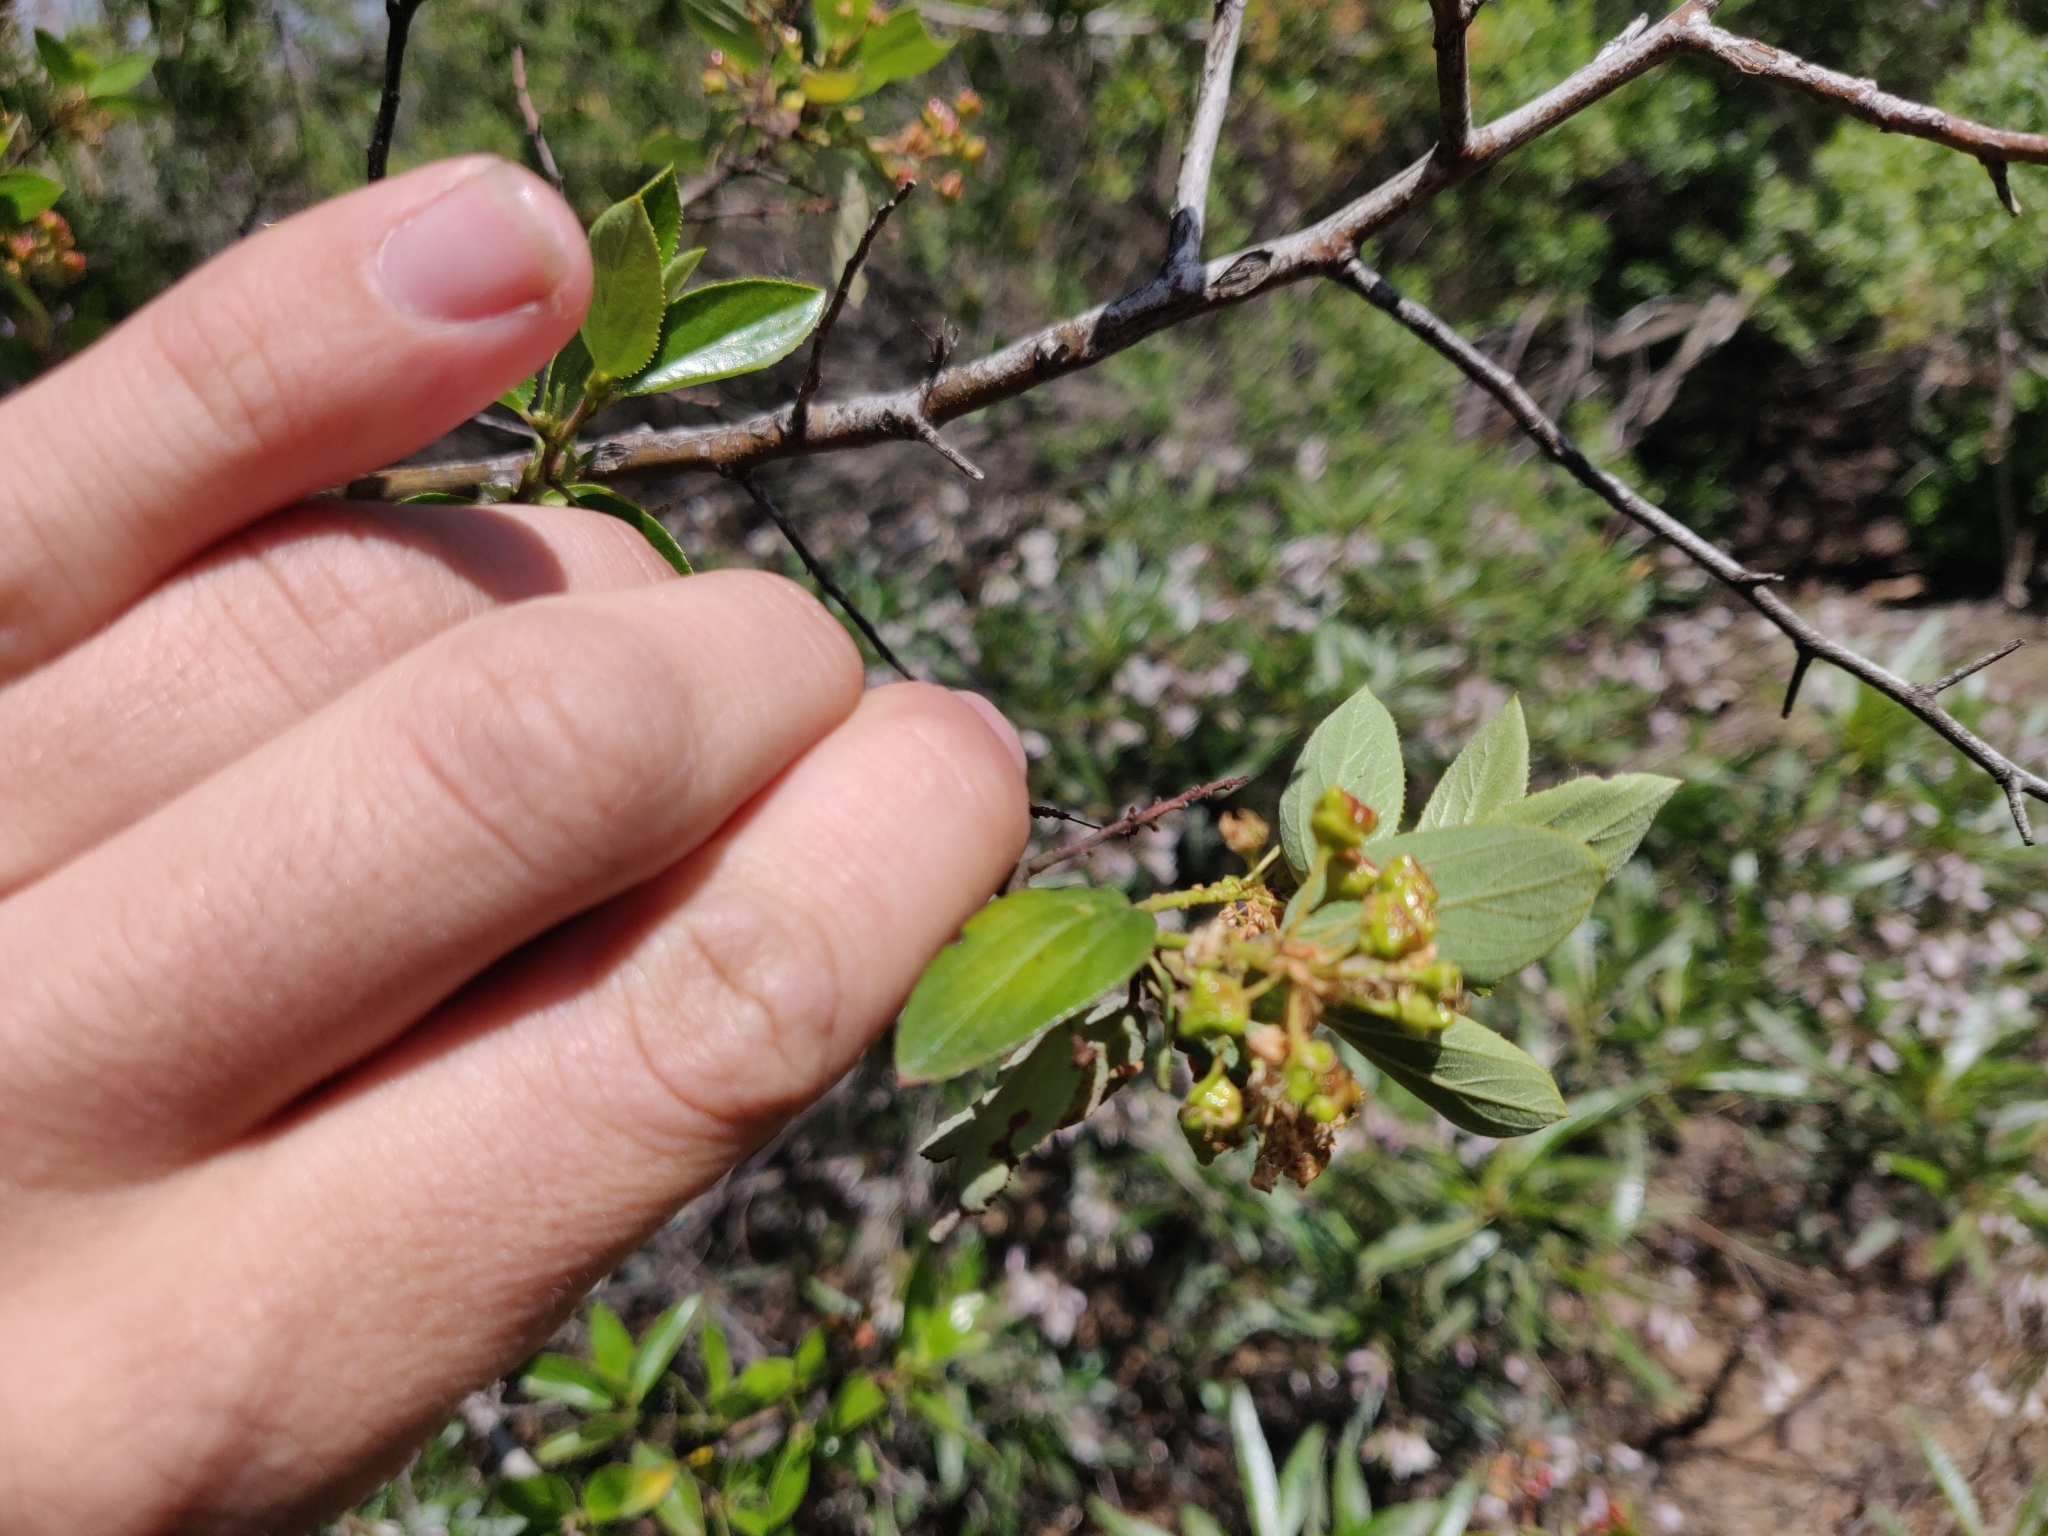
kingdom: Plantae
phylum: Tracheophyta
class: Magnoliopsida
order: Rosales
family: Rhamnaceae
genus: Ceanothus
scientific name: Ceanothus sorediatus
